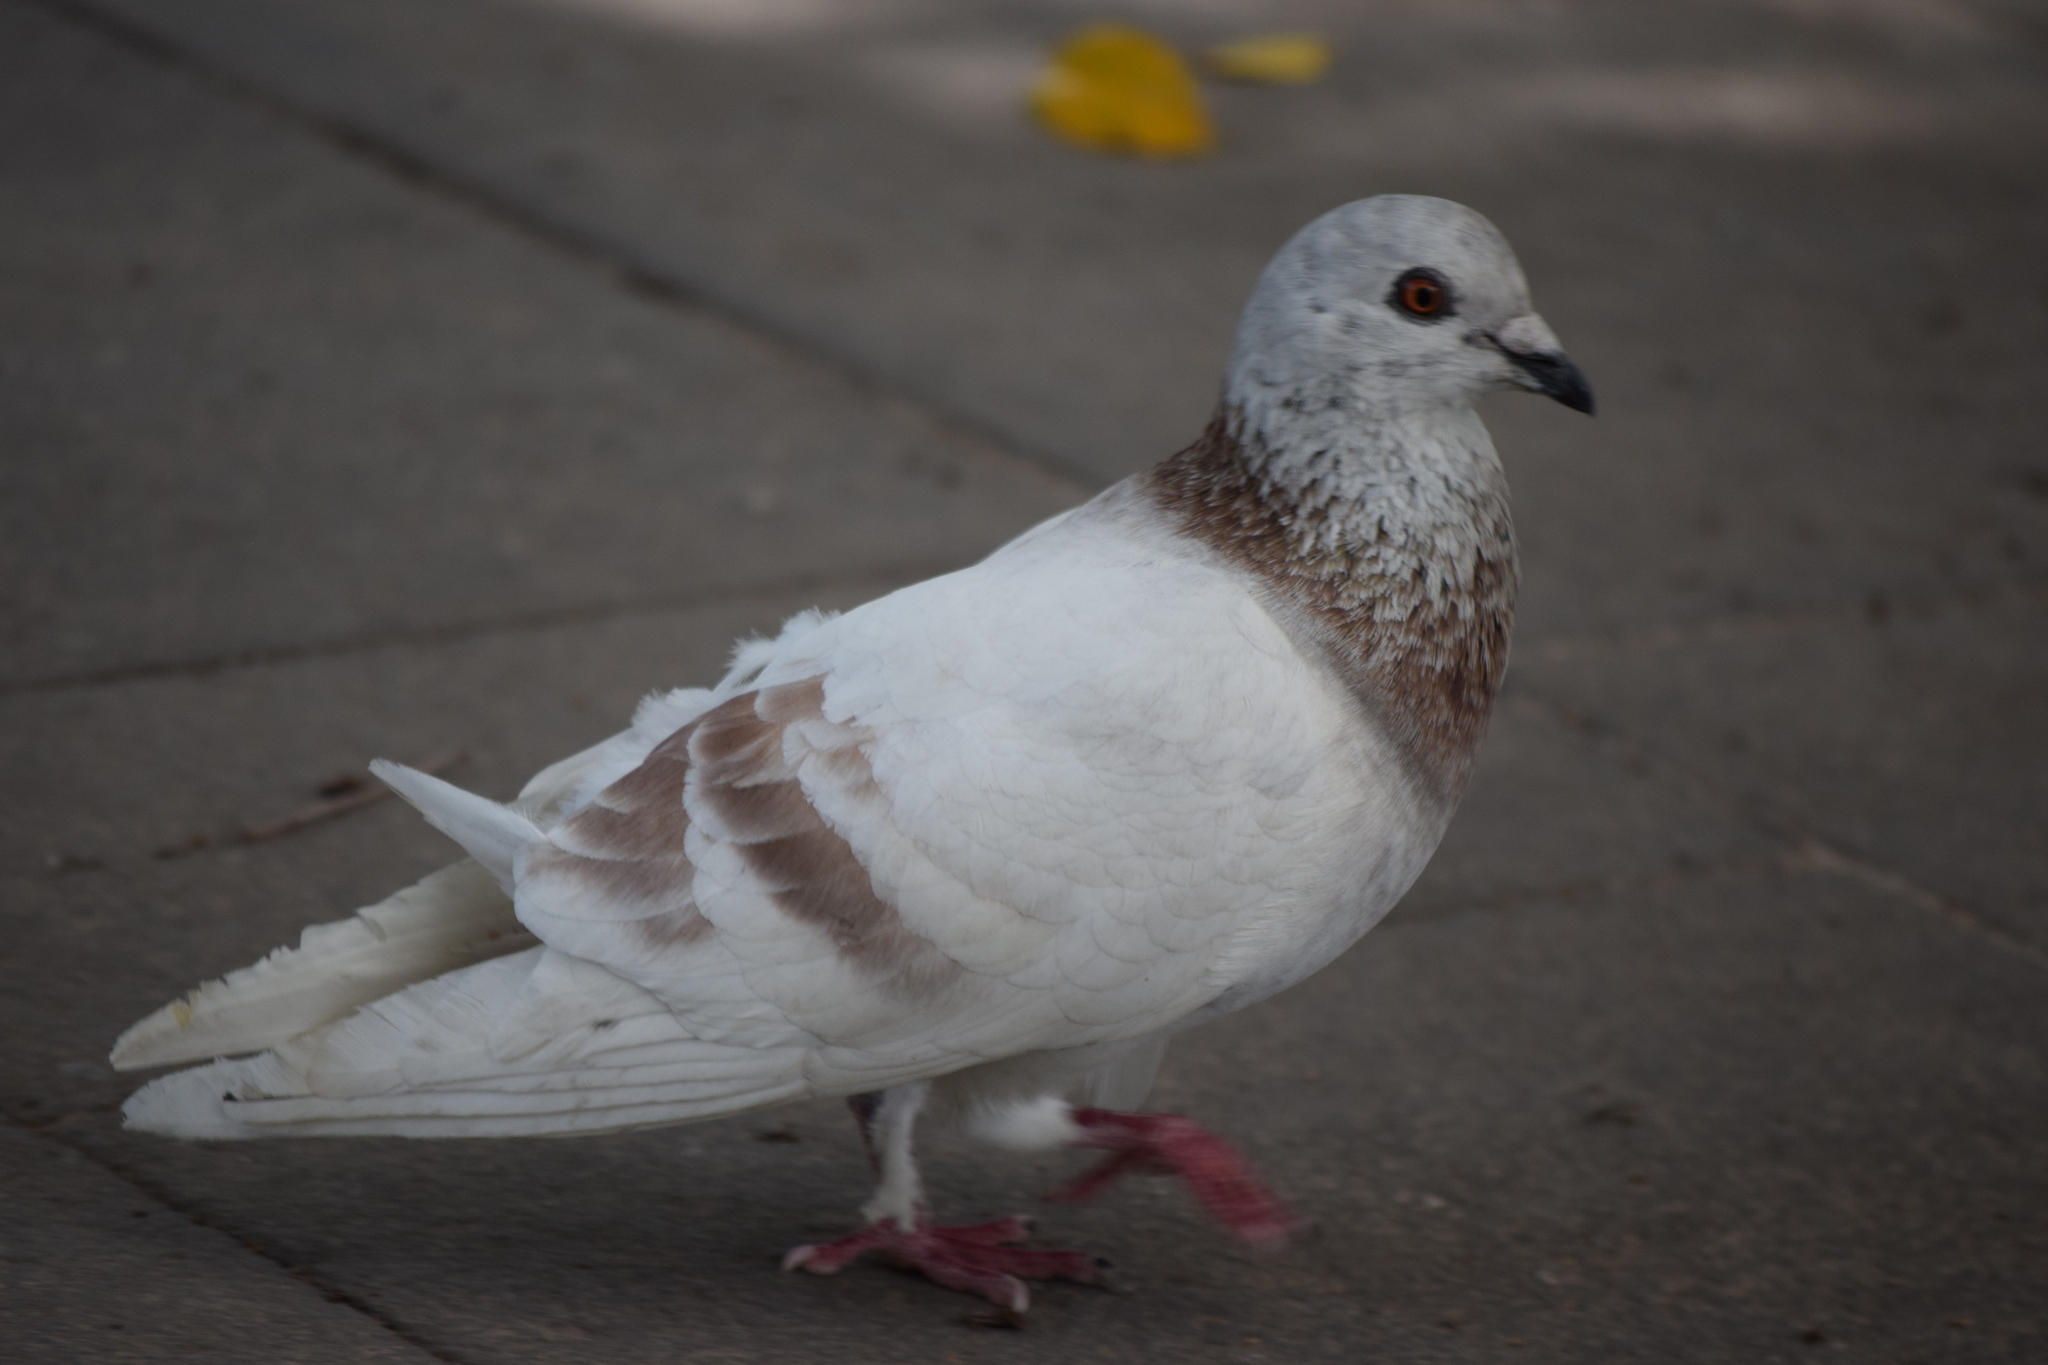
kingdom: Animalia
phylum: Chordata
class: Aves
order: Columbiformes
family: Columbidae
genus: Columba
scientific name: Columba livia
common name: Rock pigeon
